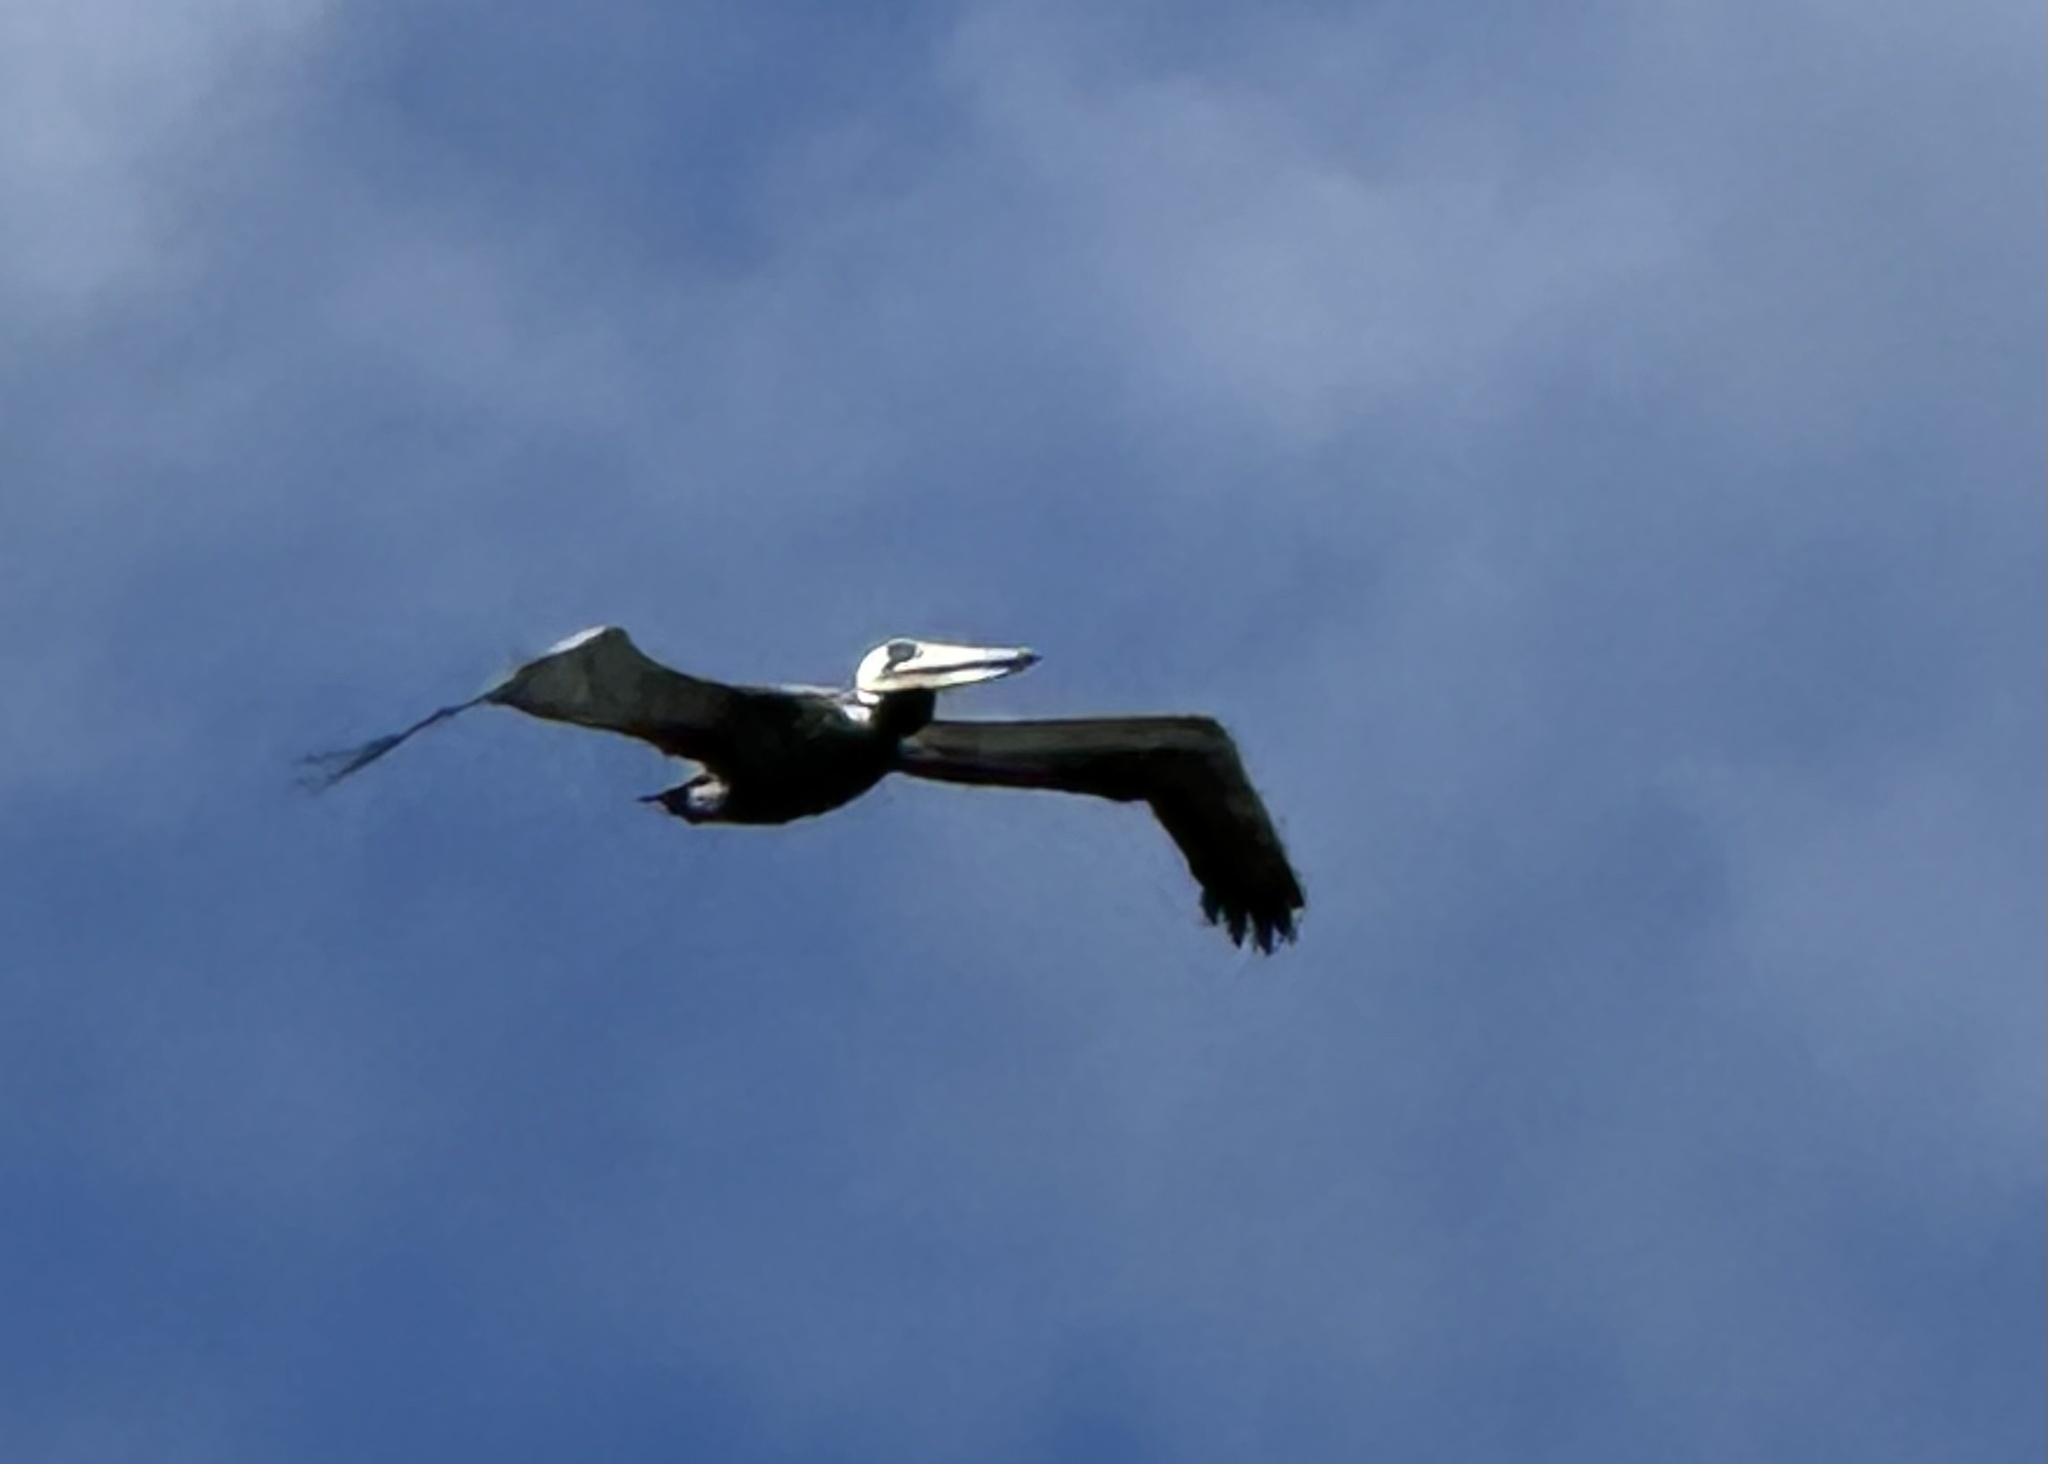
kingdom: Animalia
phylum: Chordata
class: Aves
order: Pelecaniformes
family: Pelecanidae
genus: Pelecanus
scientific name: Pelecanus occidentalis
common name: Brown pelican
